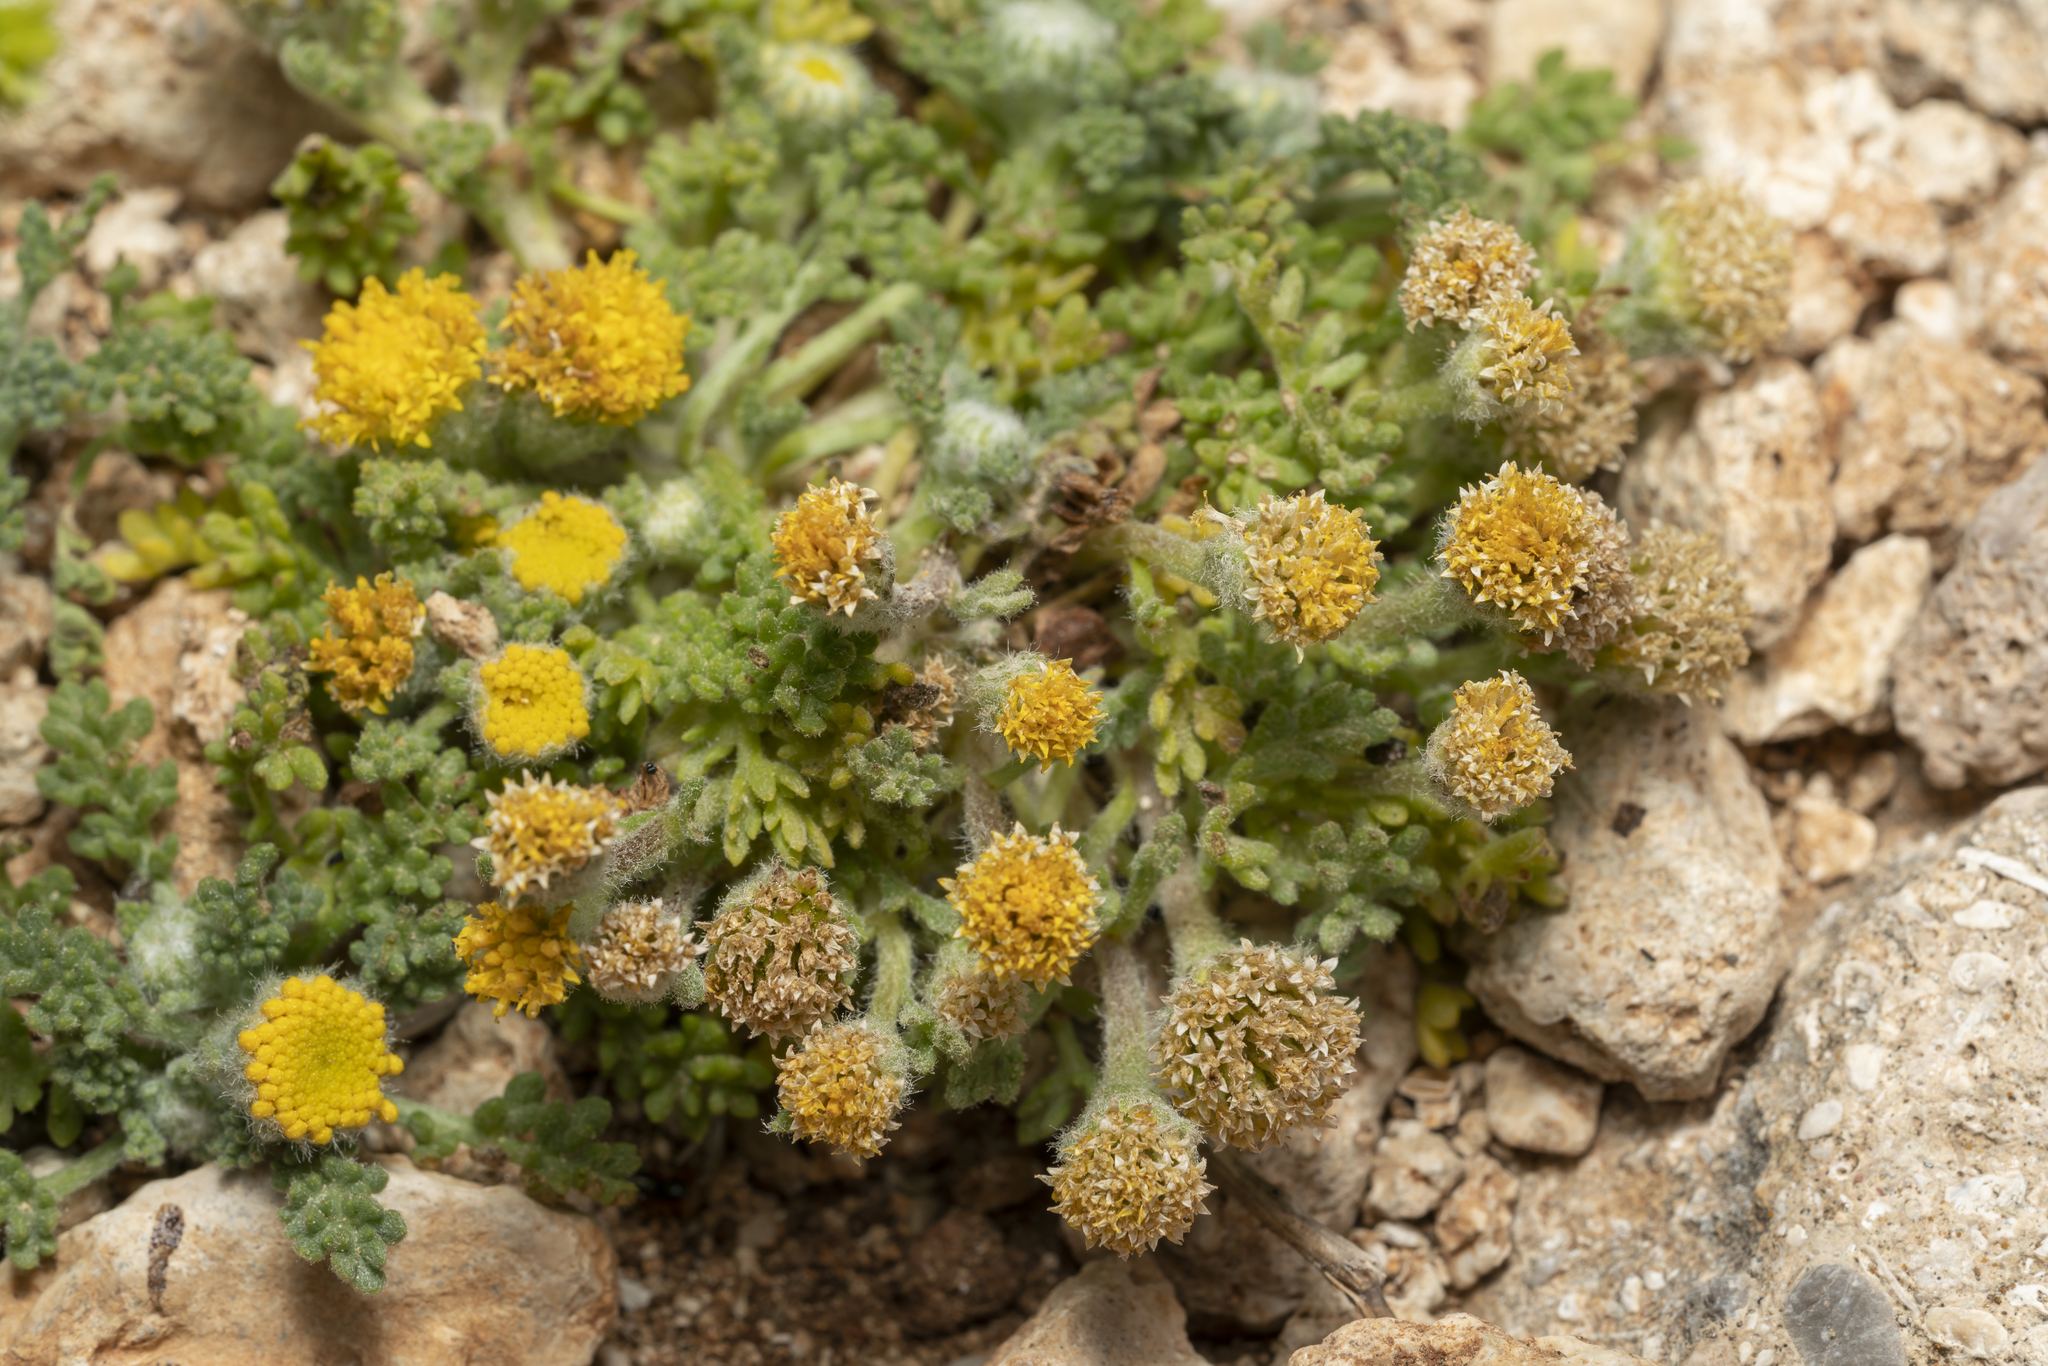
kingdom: Plantae
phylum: Tracheophyta
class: Magnoliopsida
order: Asterales
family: Asteraceae
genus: Anthemis
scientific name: Anthemis rigida
